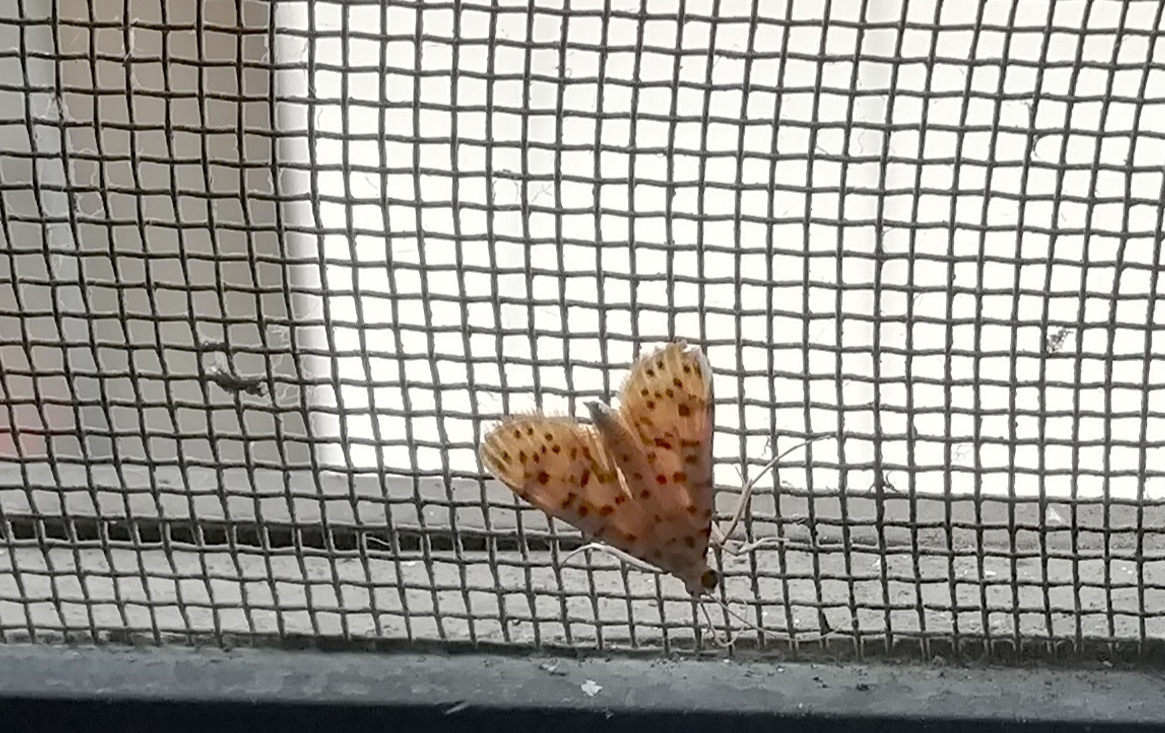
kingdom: Animalia
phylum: Arthropoda
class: Insecta
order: Lepidoptera
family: Crambidae
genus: Conogethes
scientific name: Conogethes punctiferalis
